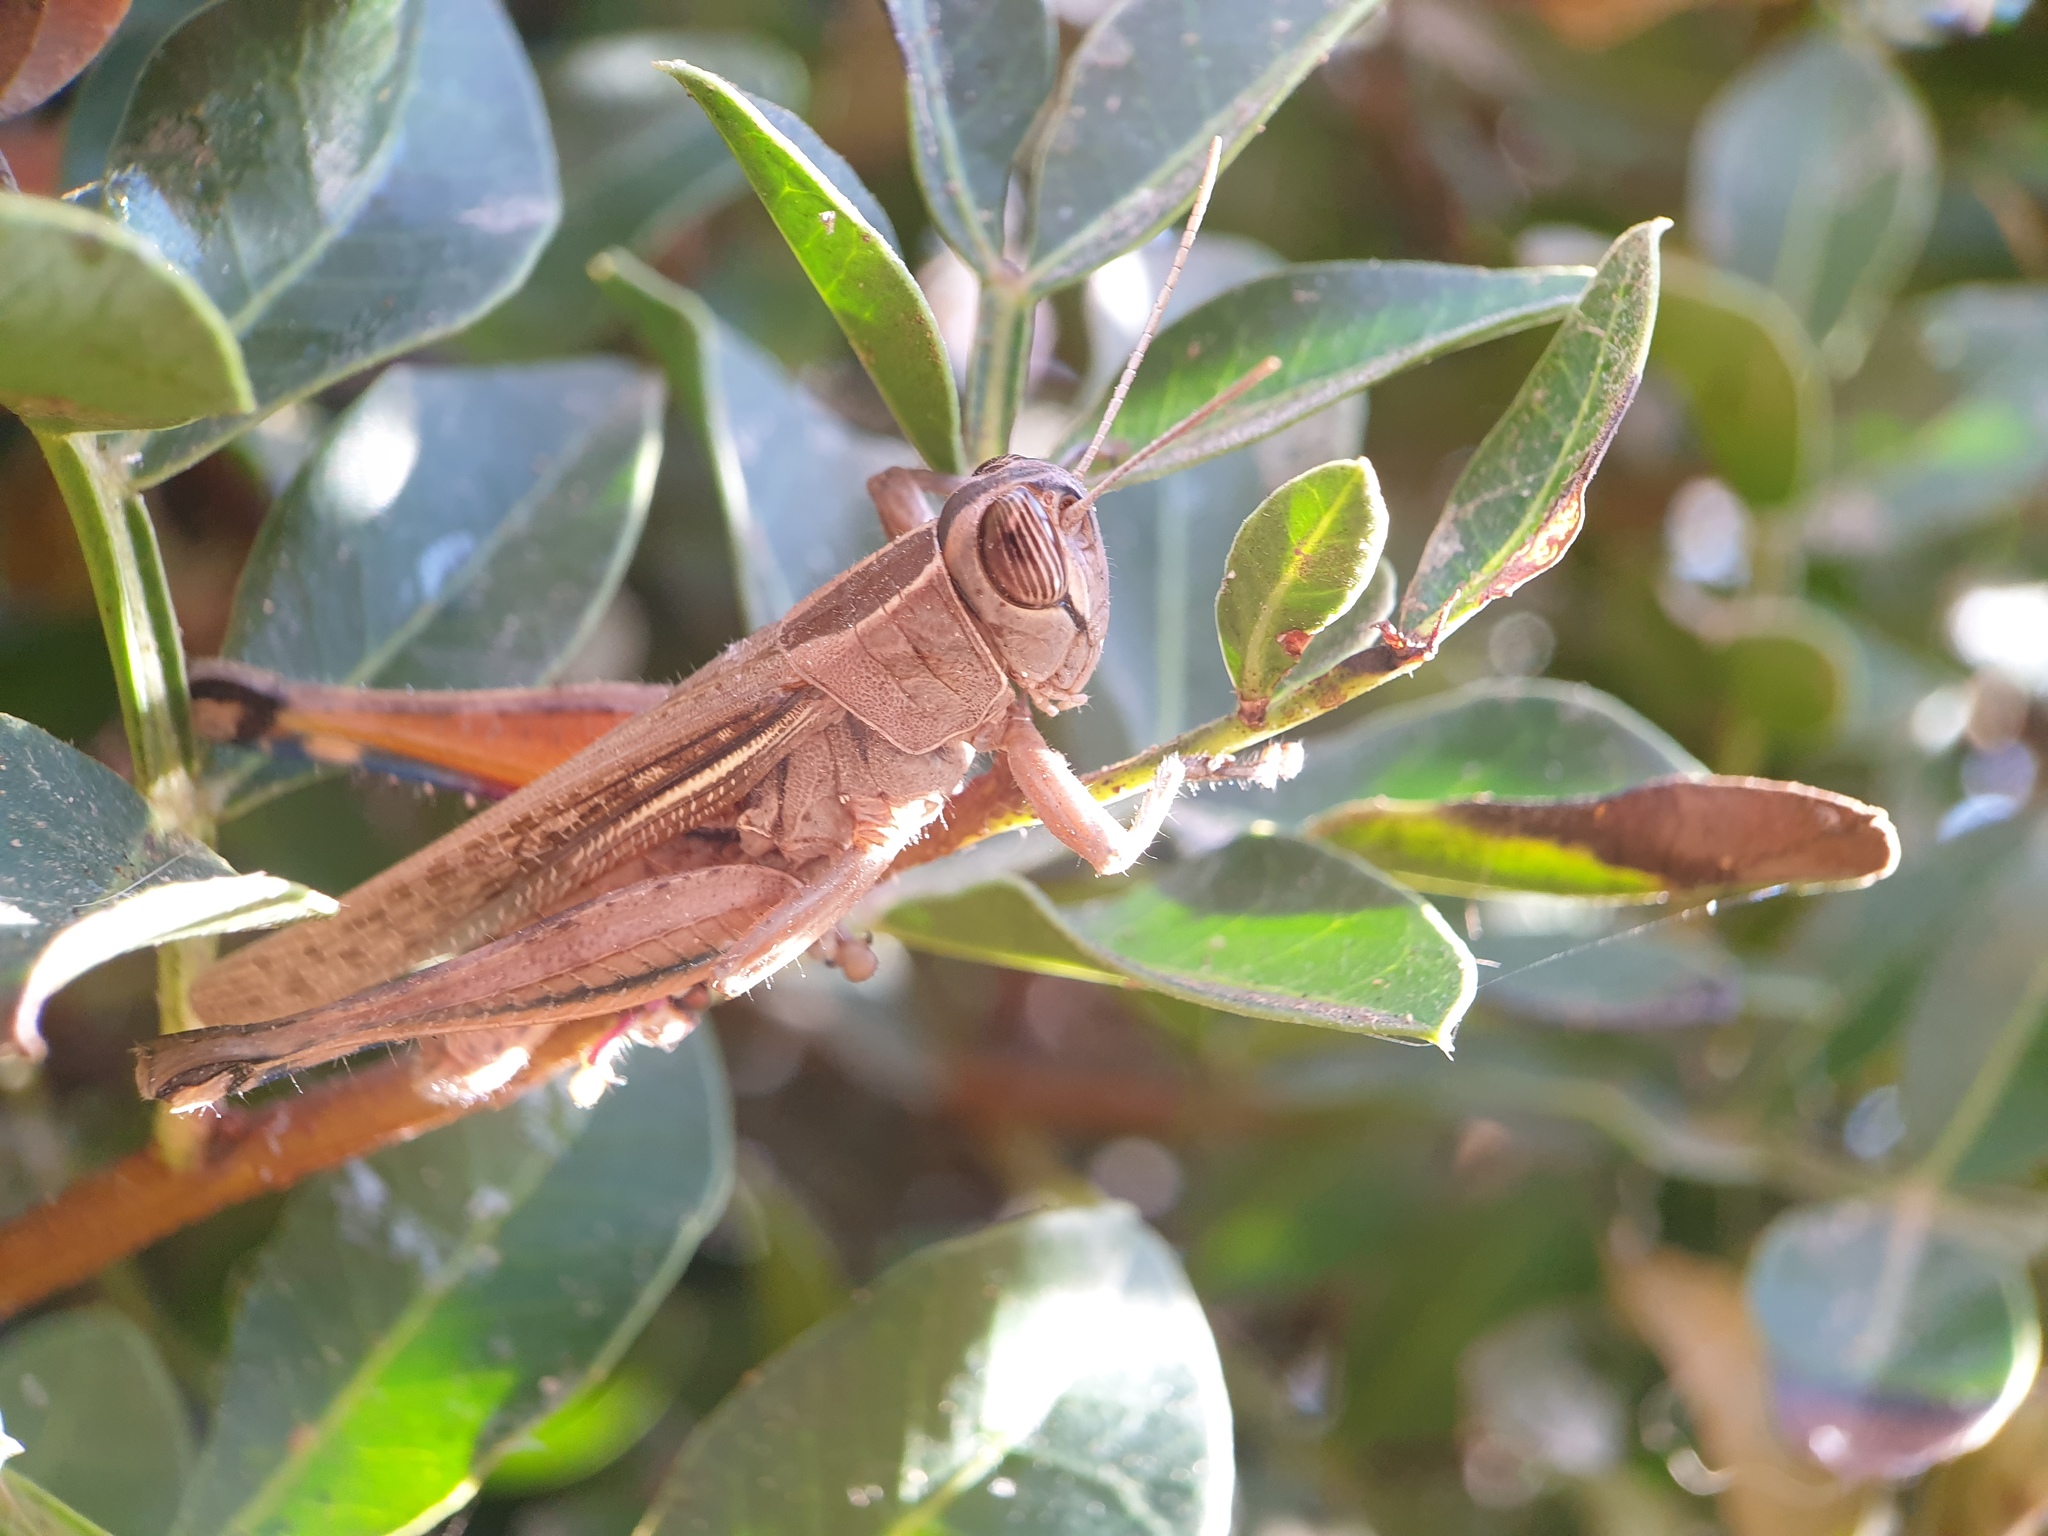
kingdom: Animalia
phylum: Arthropoda
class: Insecta
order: Orthoptera
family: Acrididae
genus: Eyprepocnemis
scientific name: Eyprepocnemis plorans
